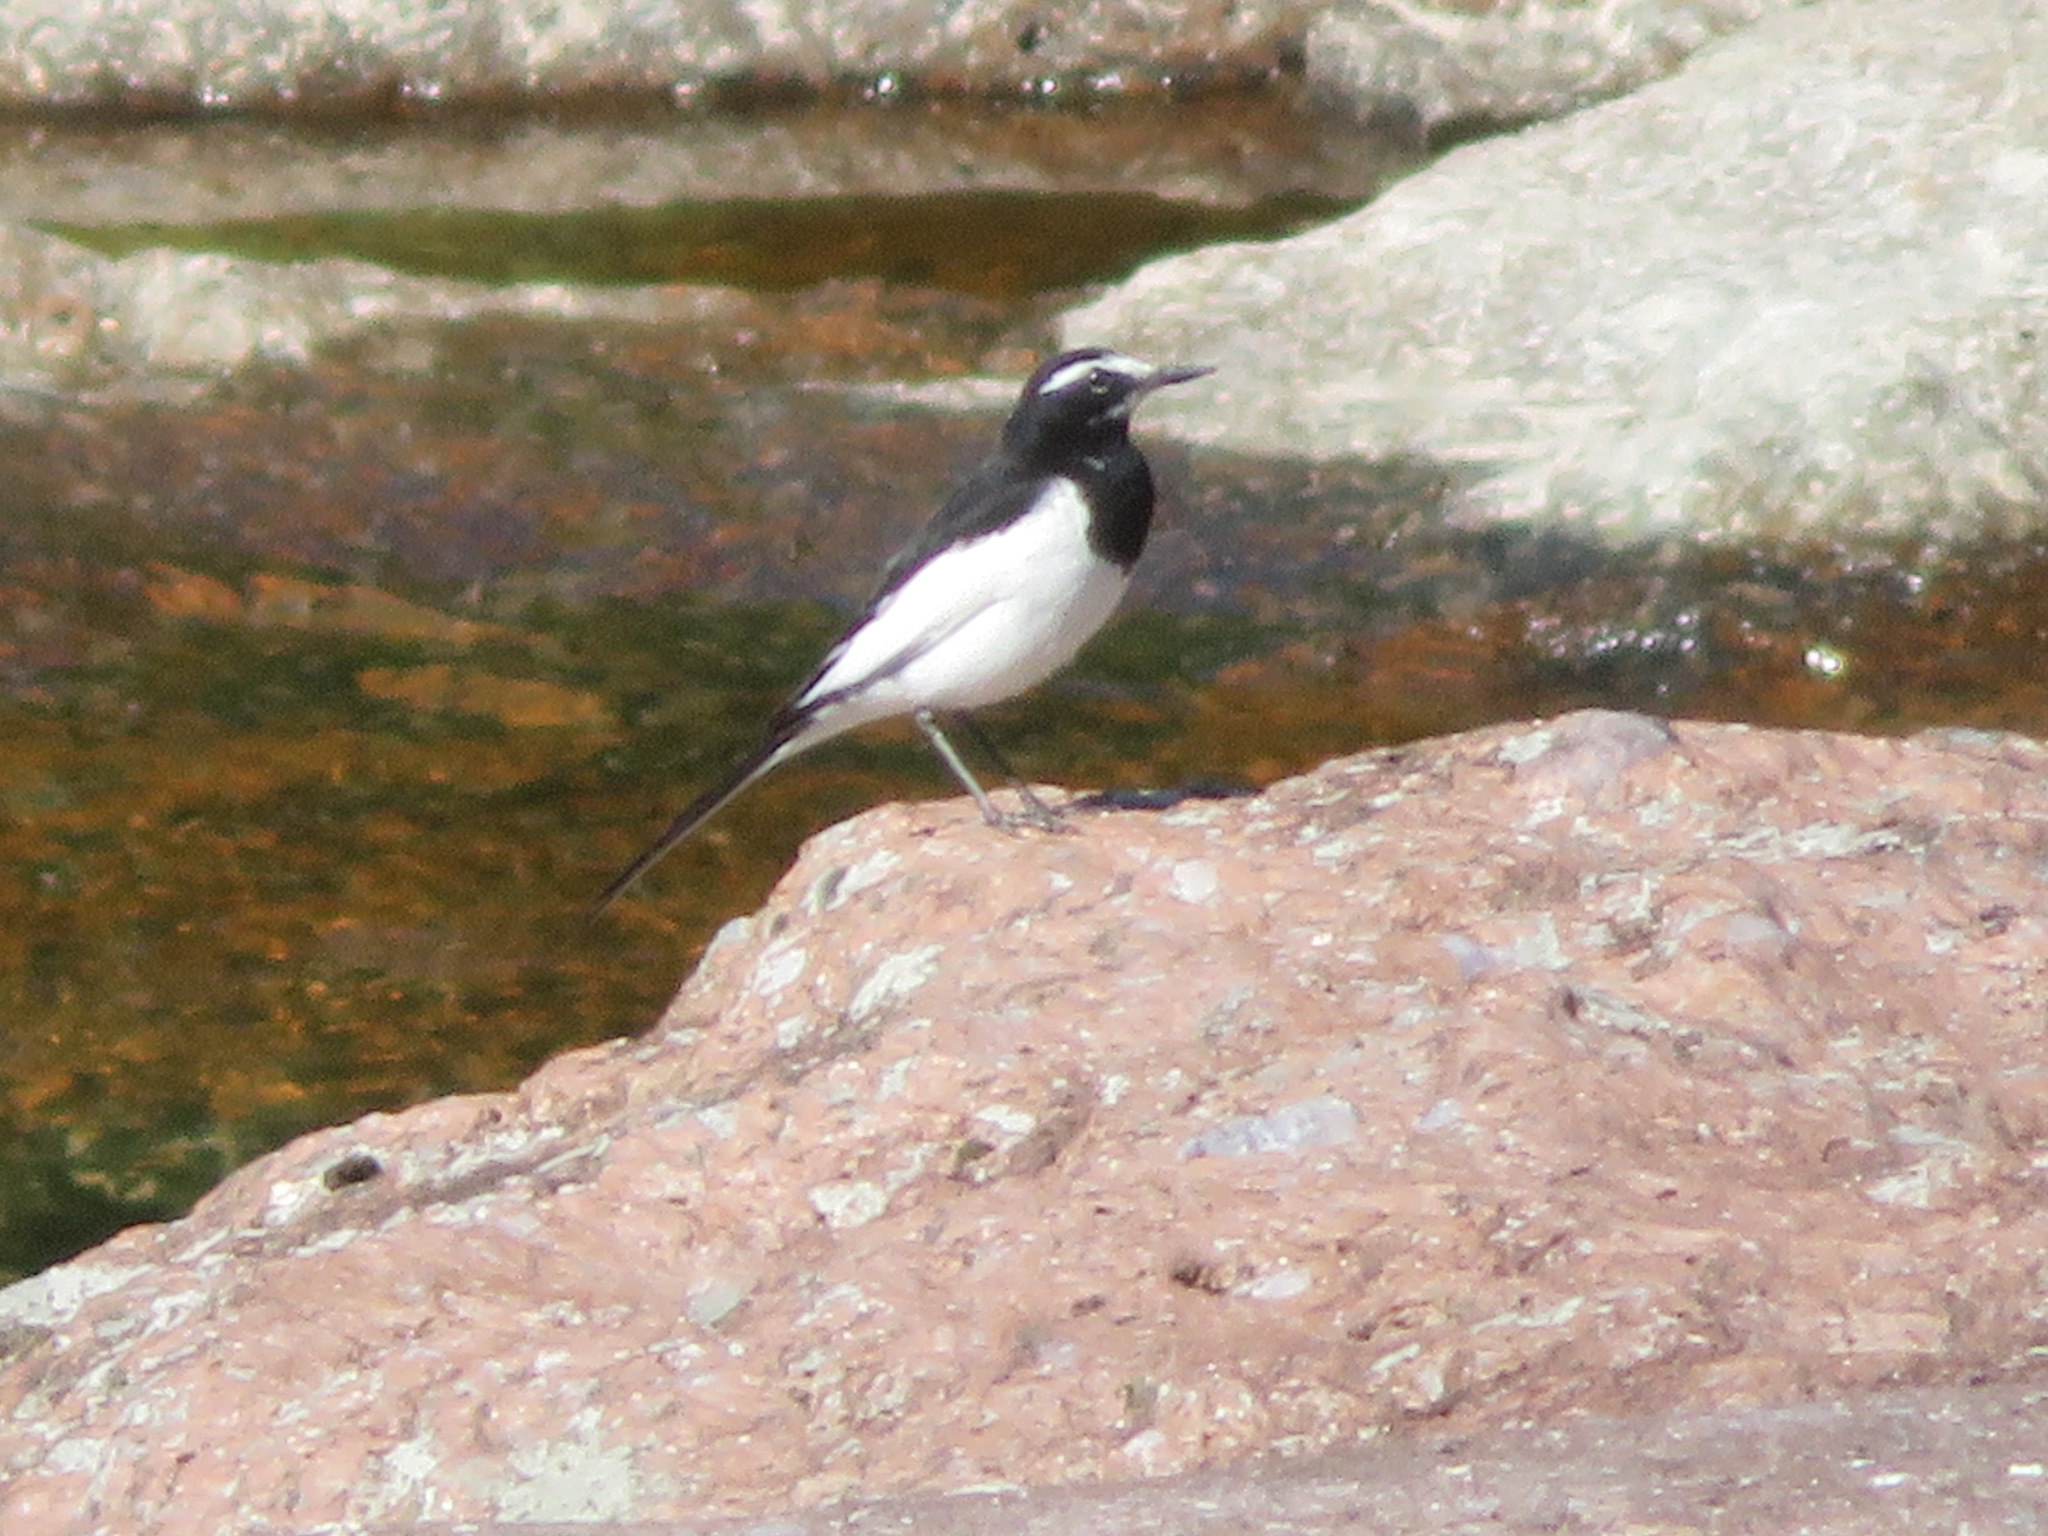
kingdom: Animalia
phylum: Chordata
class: Aves
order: Passeriformes
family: Motacillidae
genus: Motacilla
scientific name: Motacilla grandis
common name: Japanese wagtail
